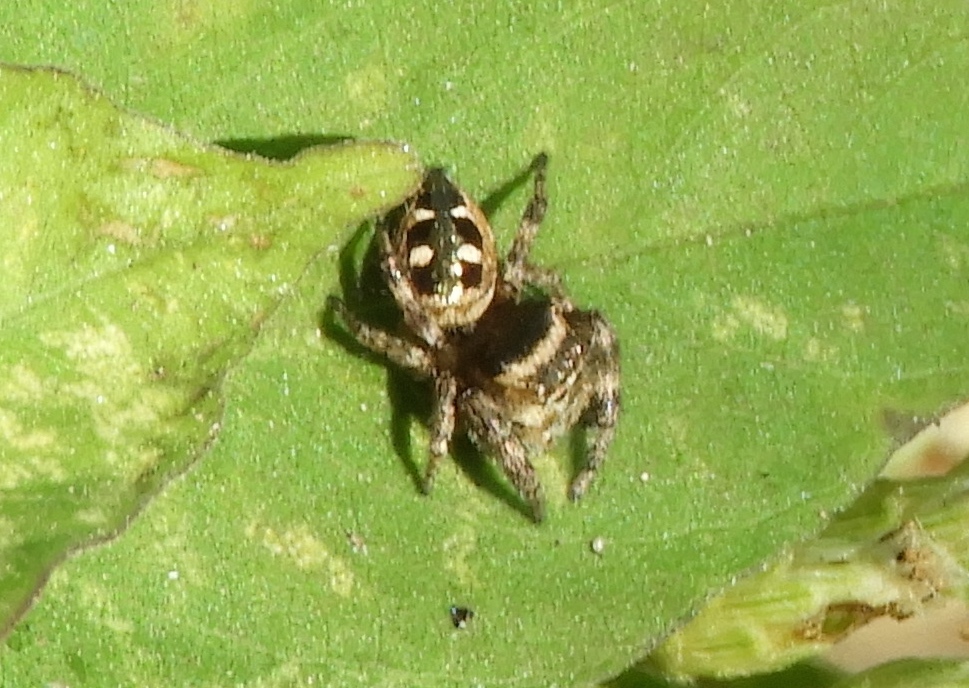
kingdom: Animalia
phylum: Arthropoda
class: Arachnida
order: Araneae
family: Salticidae
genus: Dendryphantes
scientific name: Dendryphantes zygoballoides
